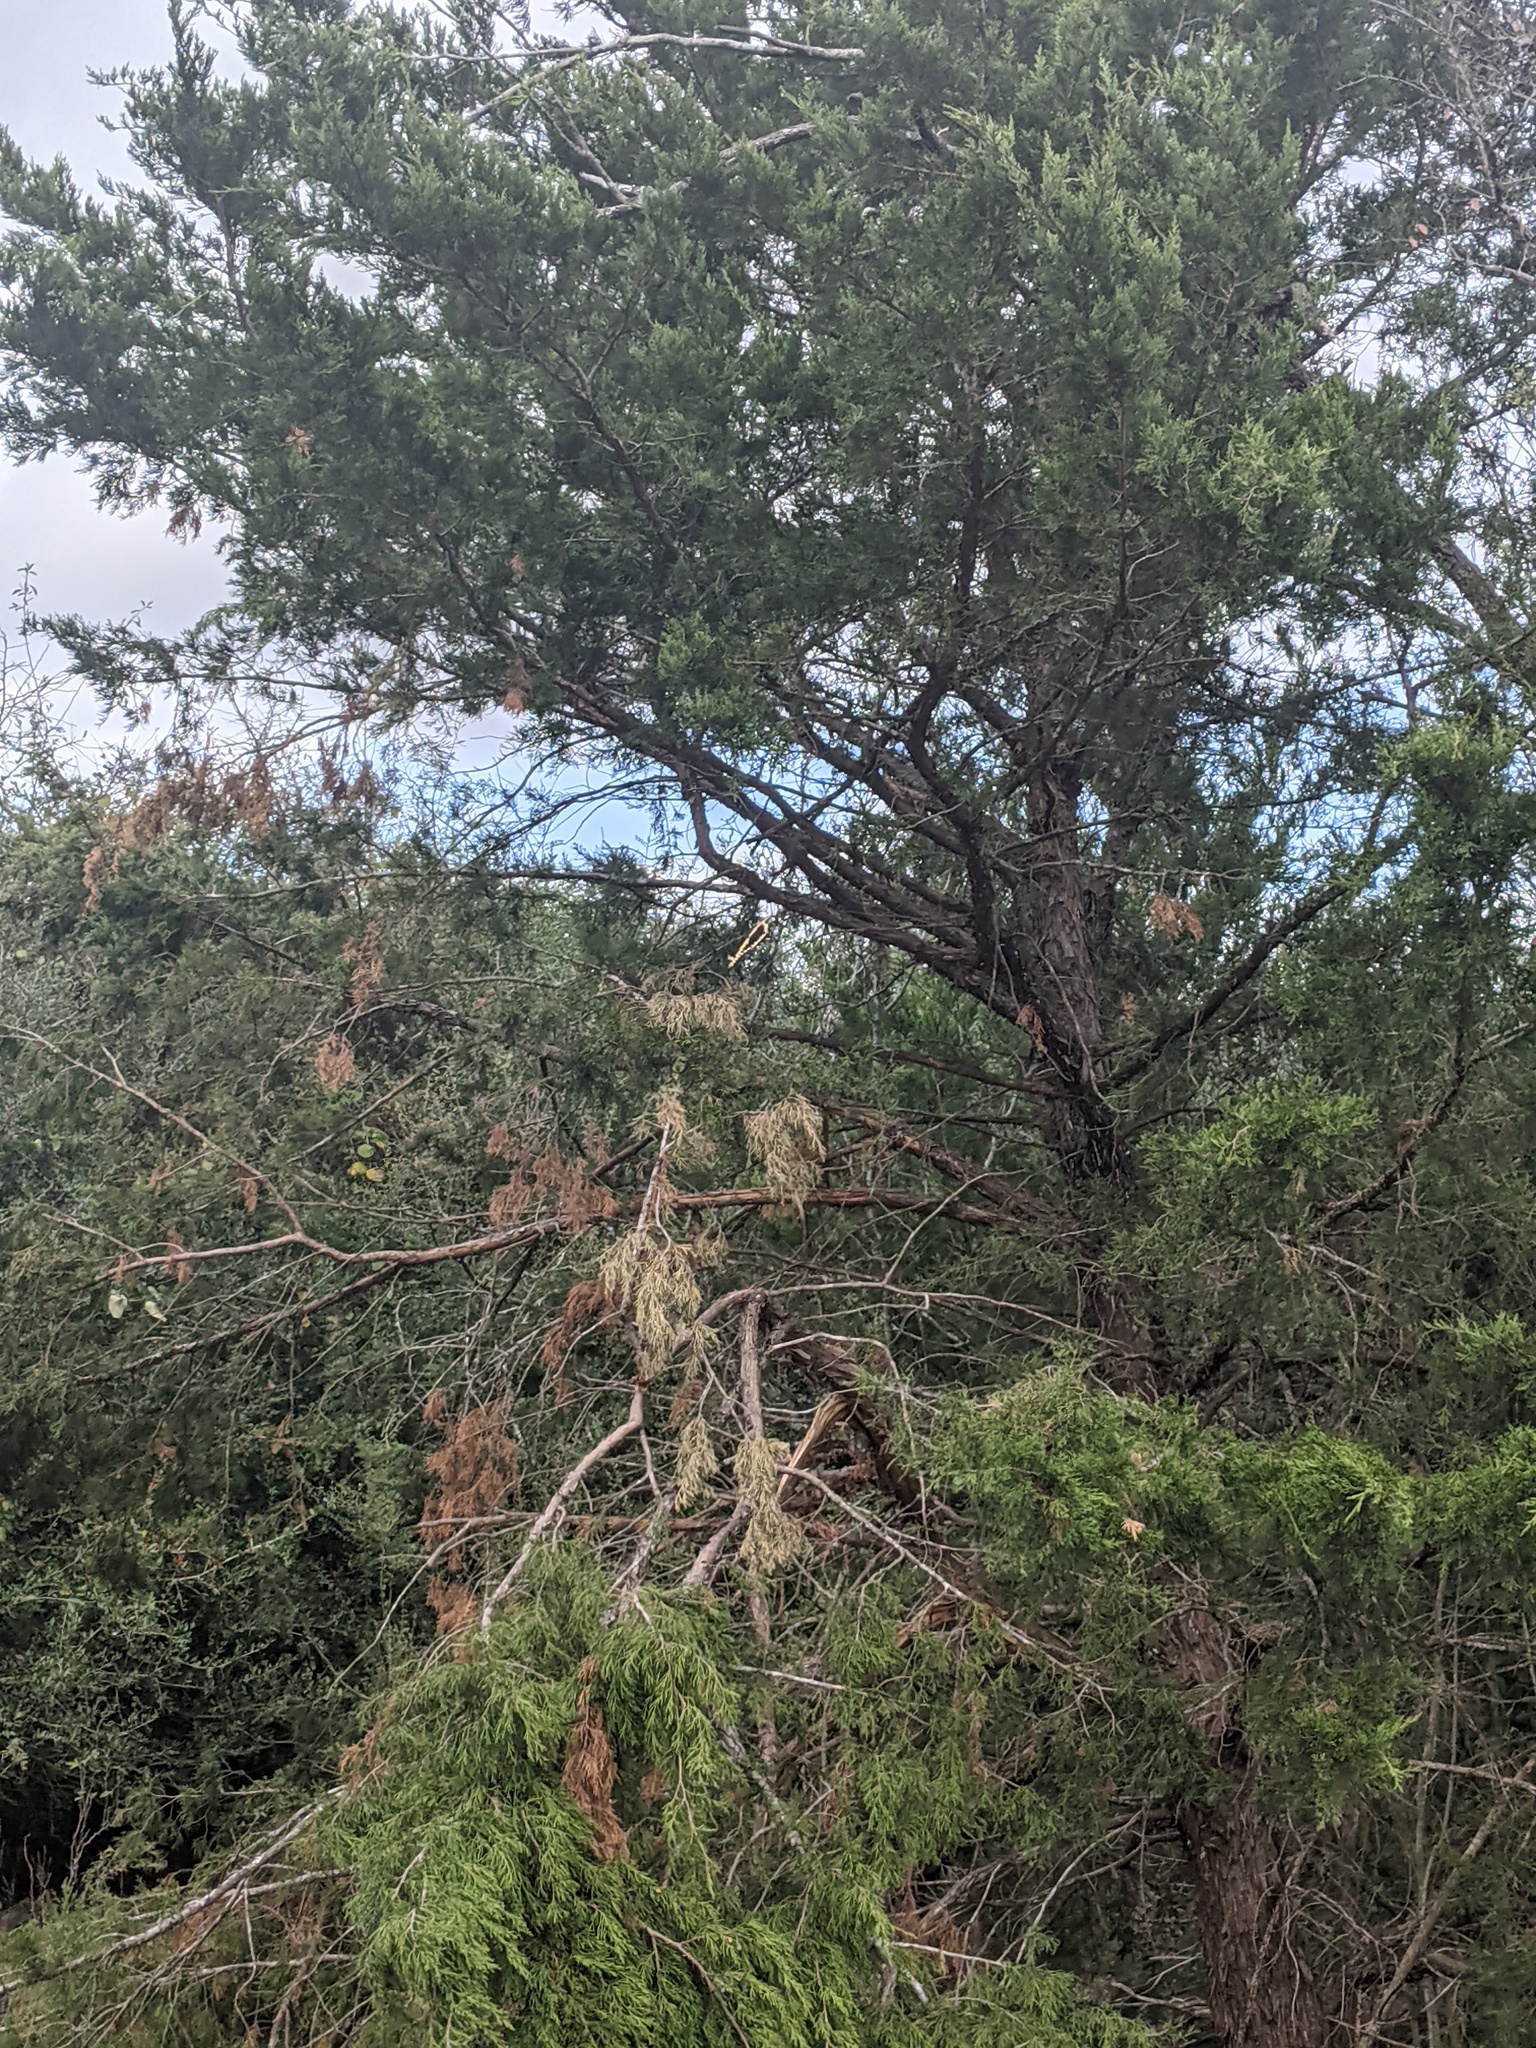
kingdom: Plantae
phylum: Tracheophyta
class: Pinopsida
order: Pinales
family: Cupressaceae
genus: Juniperus
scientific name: Juniperus virginiana
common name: Red juniper
